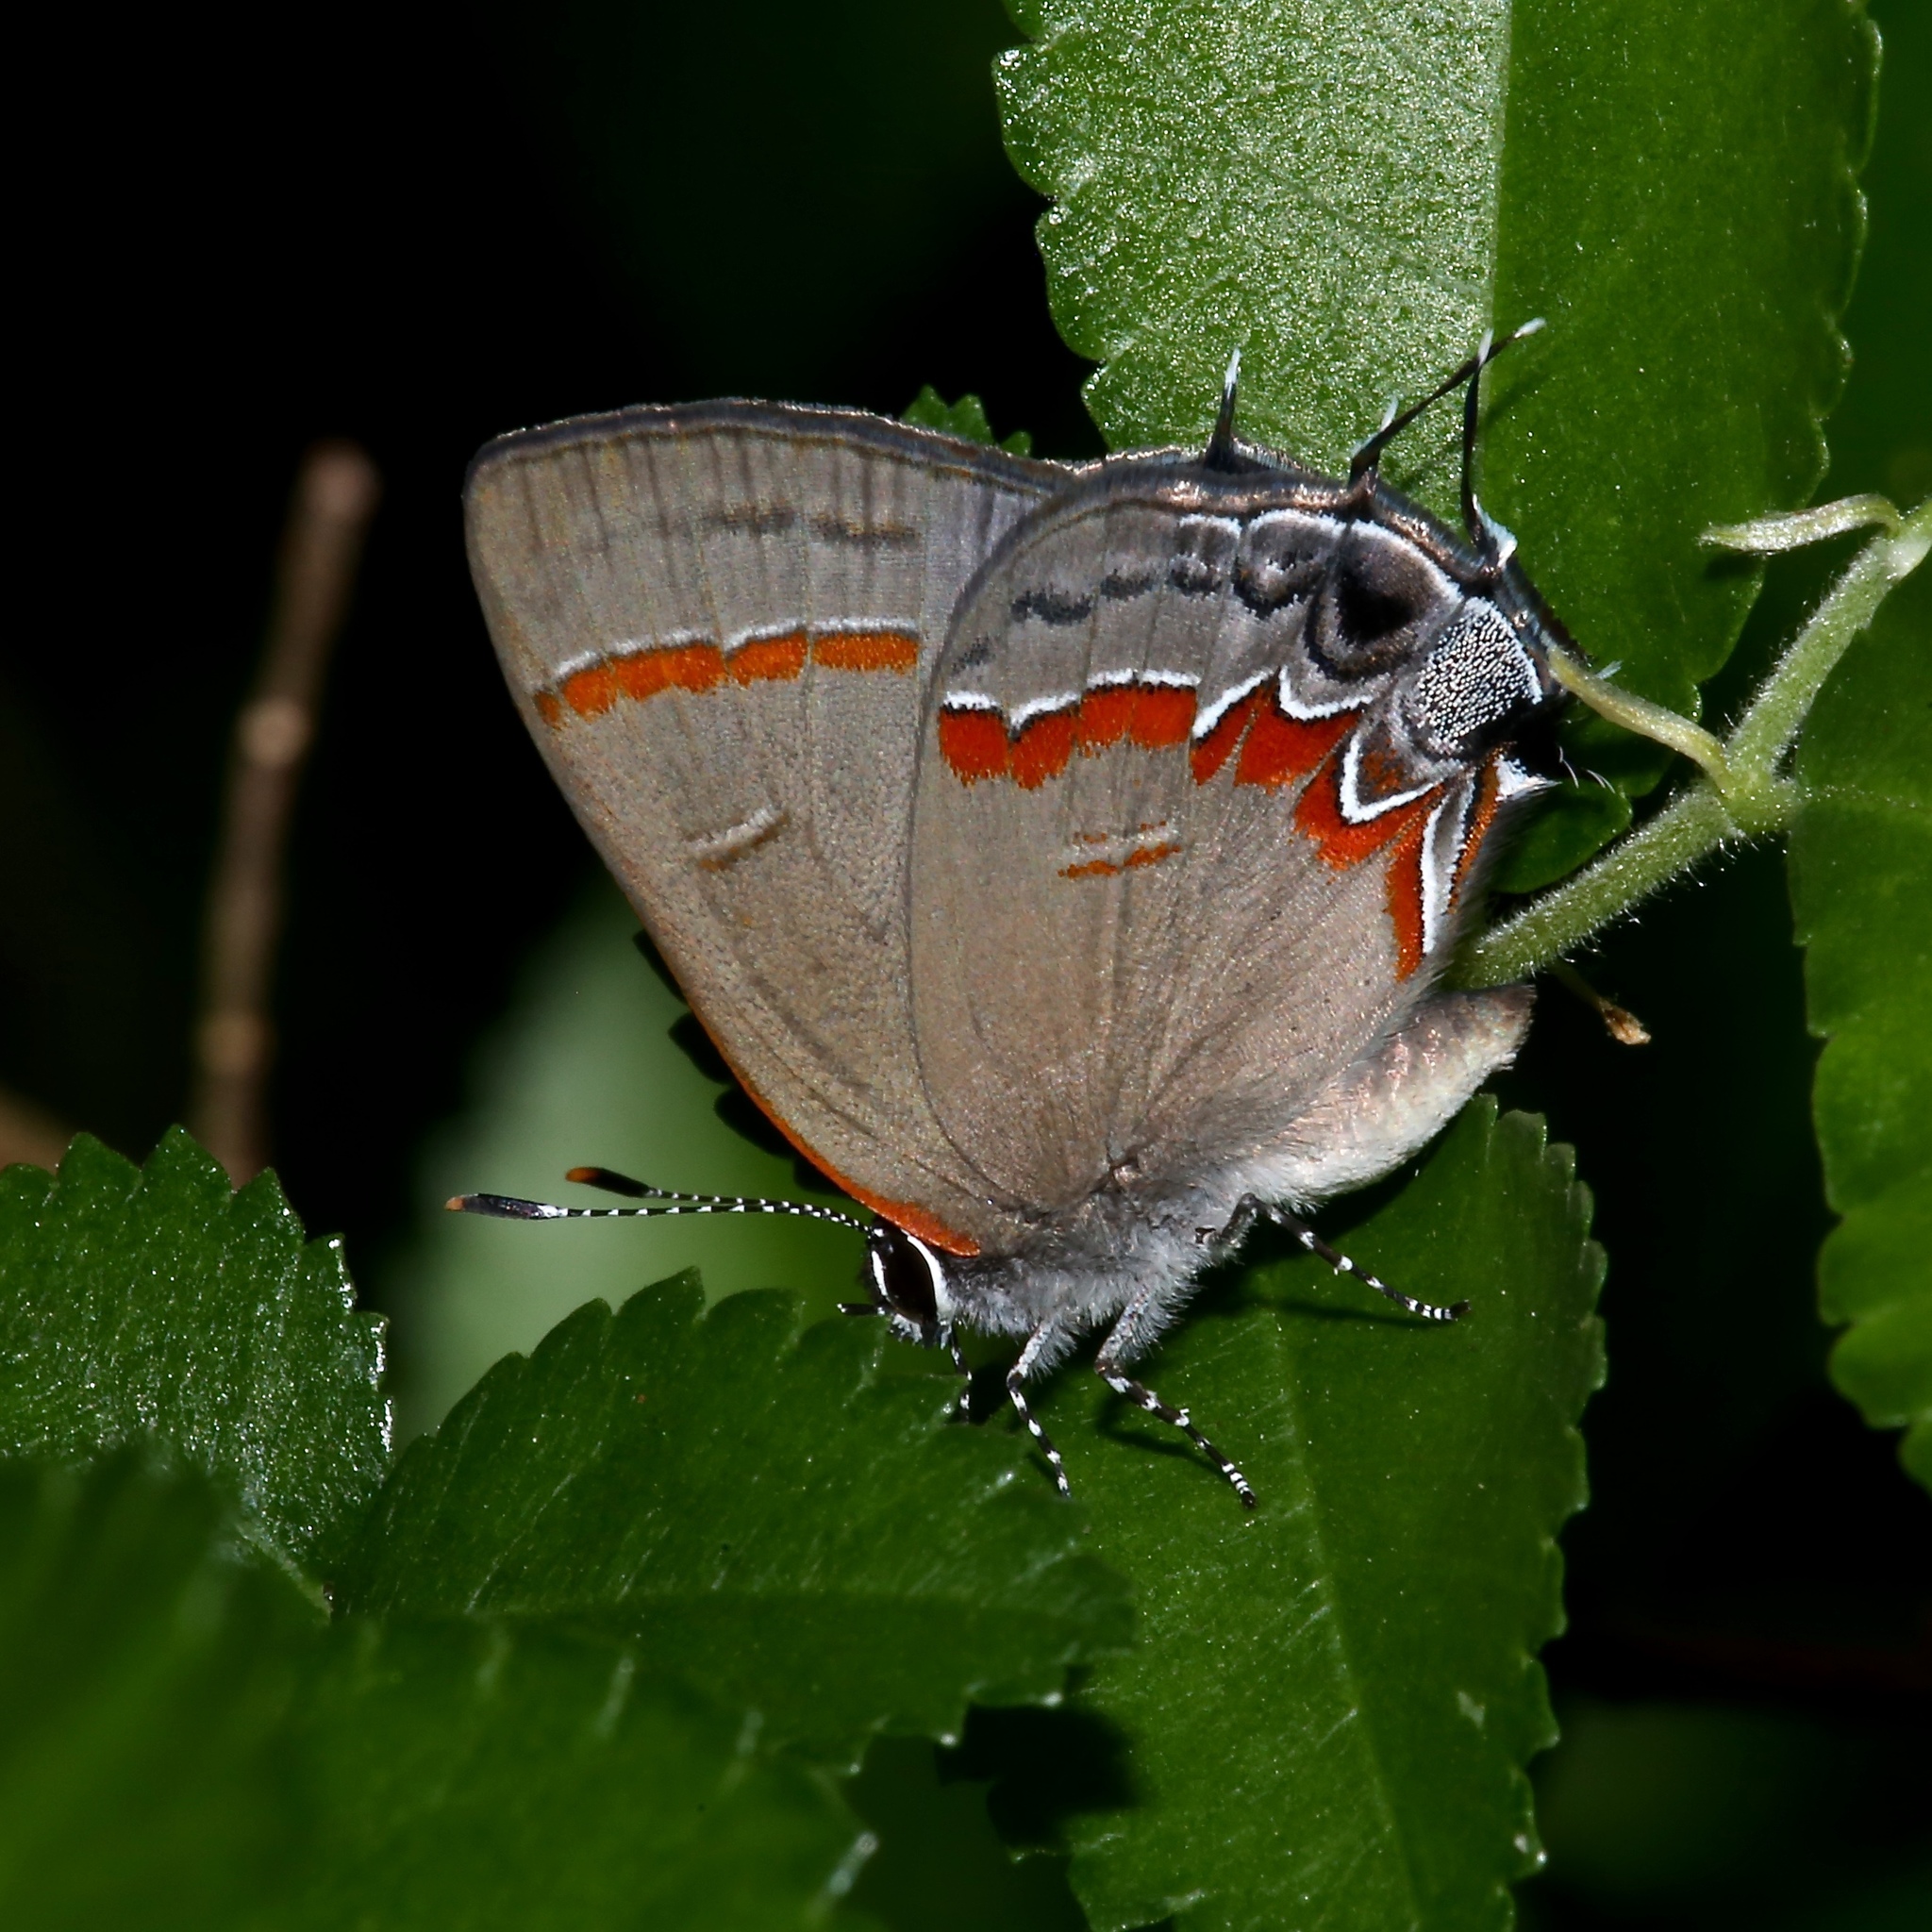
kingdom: Animalia
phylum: Arthropoda
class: Insecta
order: Lepidoptera
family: Lycaenidae
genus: Calycopis
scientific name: Calycopis cecrops
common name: Red-banded hairstreak
